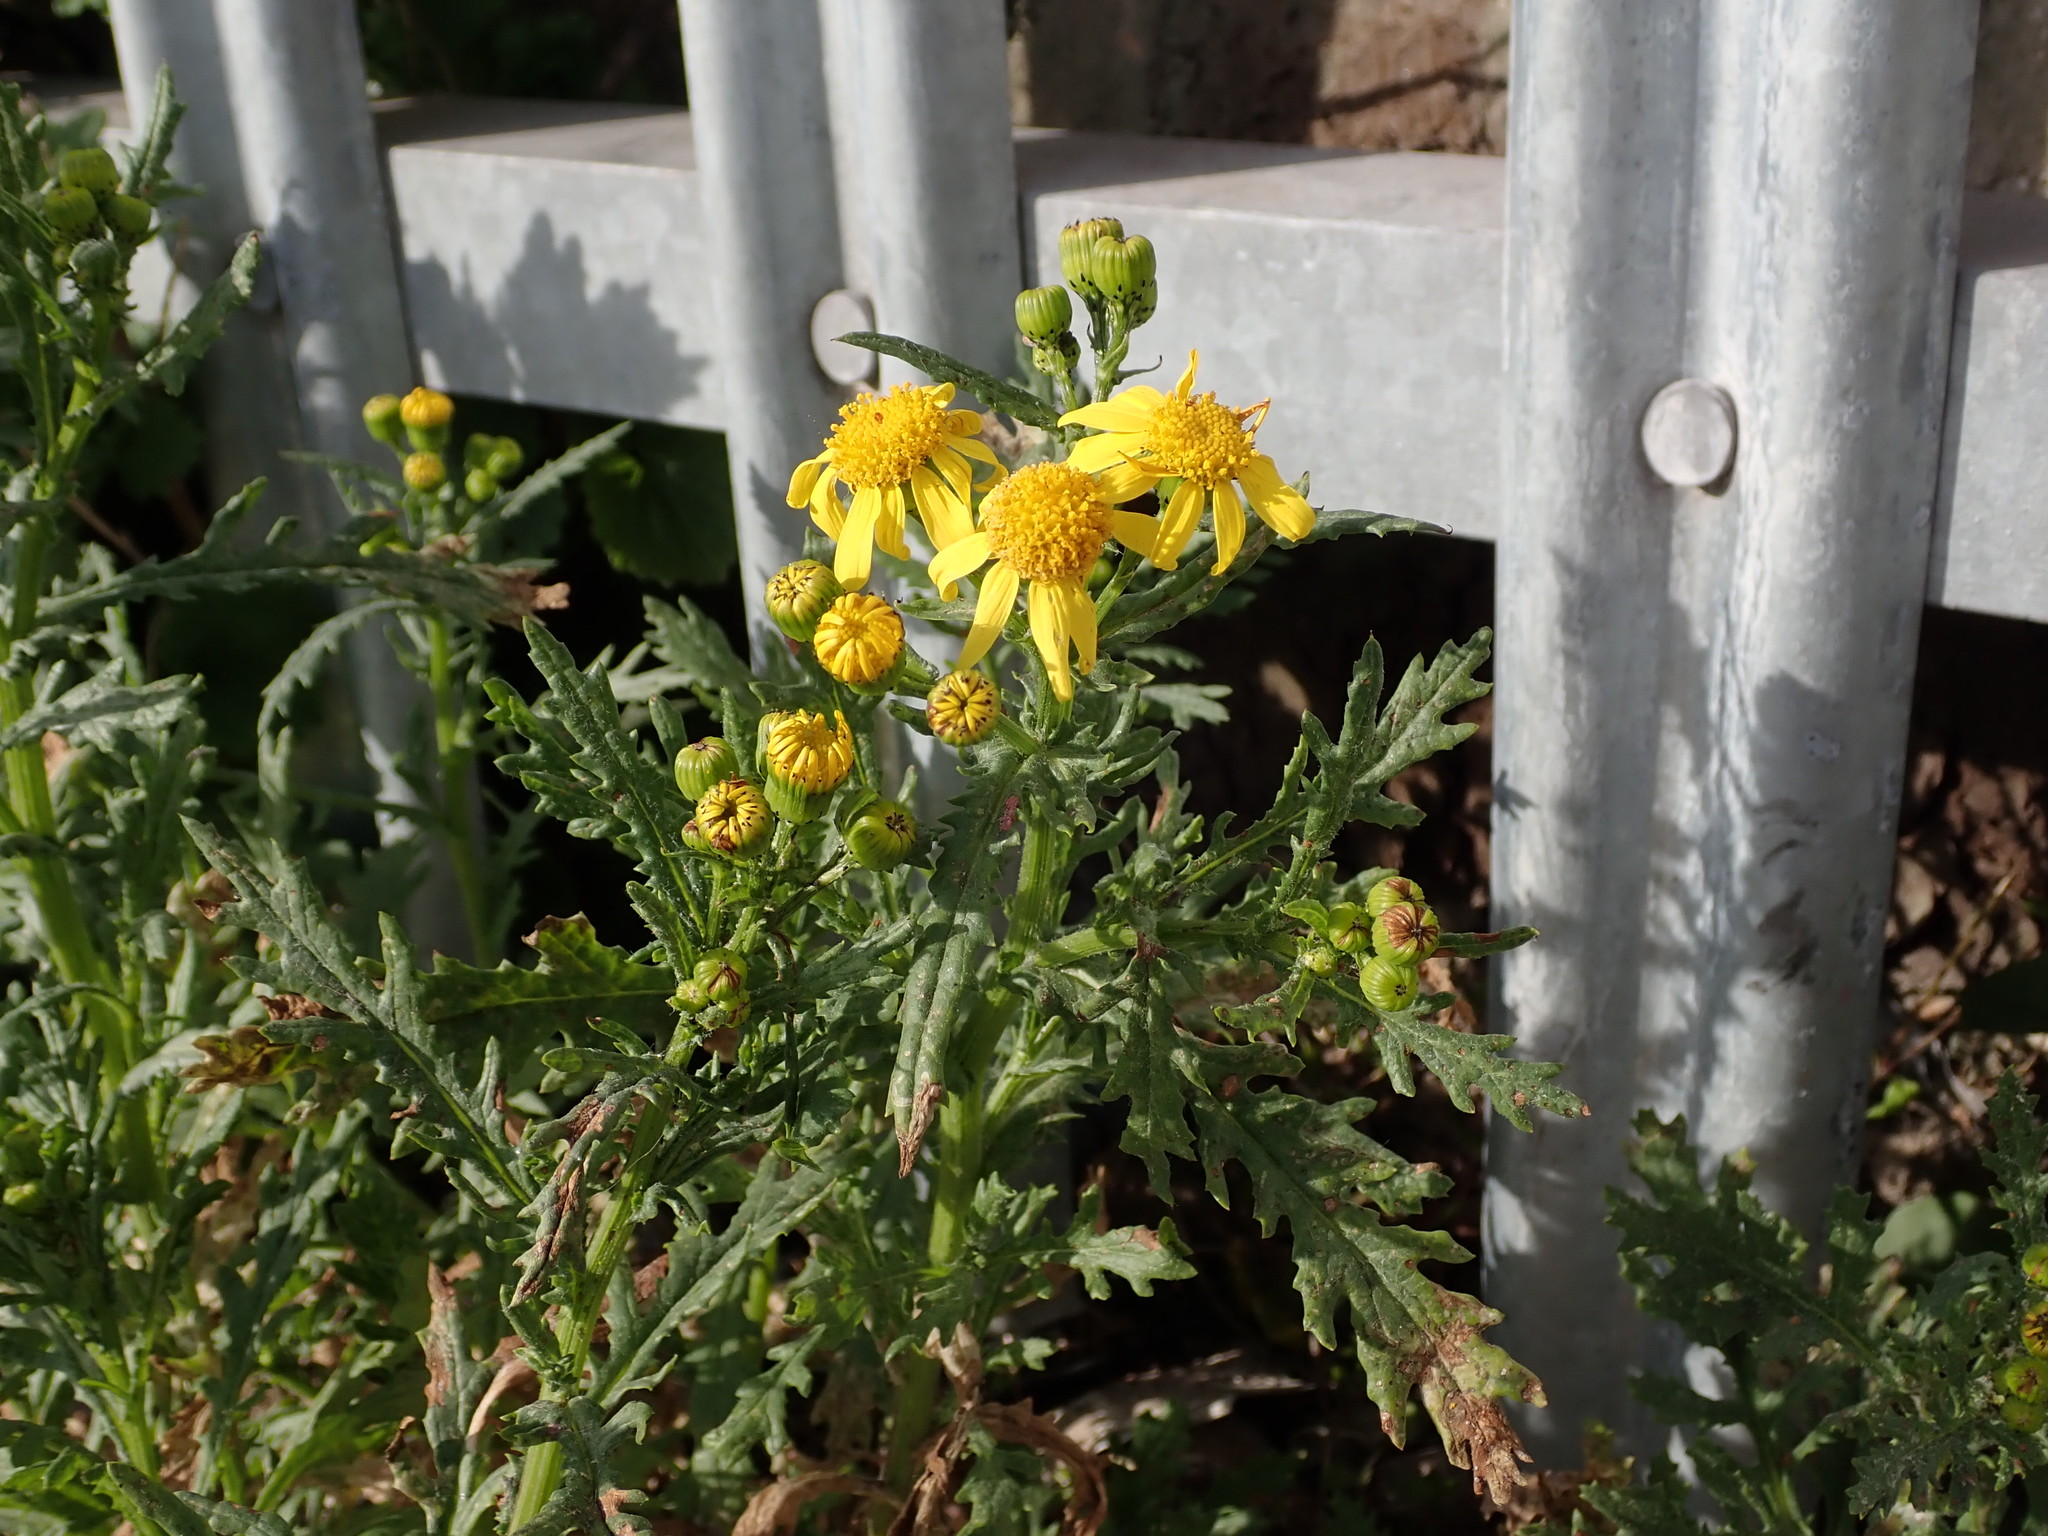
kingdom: Plantae
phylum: Tracheophyta
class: Magnoliopsida
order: Asterales
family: Asteraceae
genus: Senecio
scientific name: Senecio squalidus
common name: Oxford ragwort
